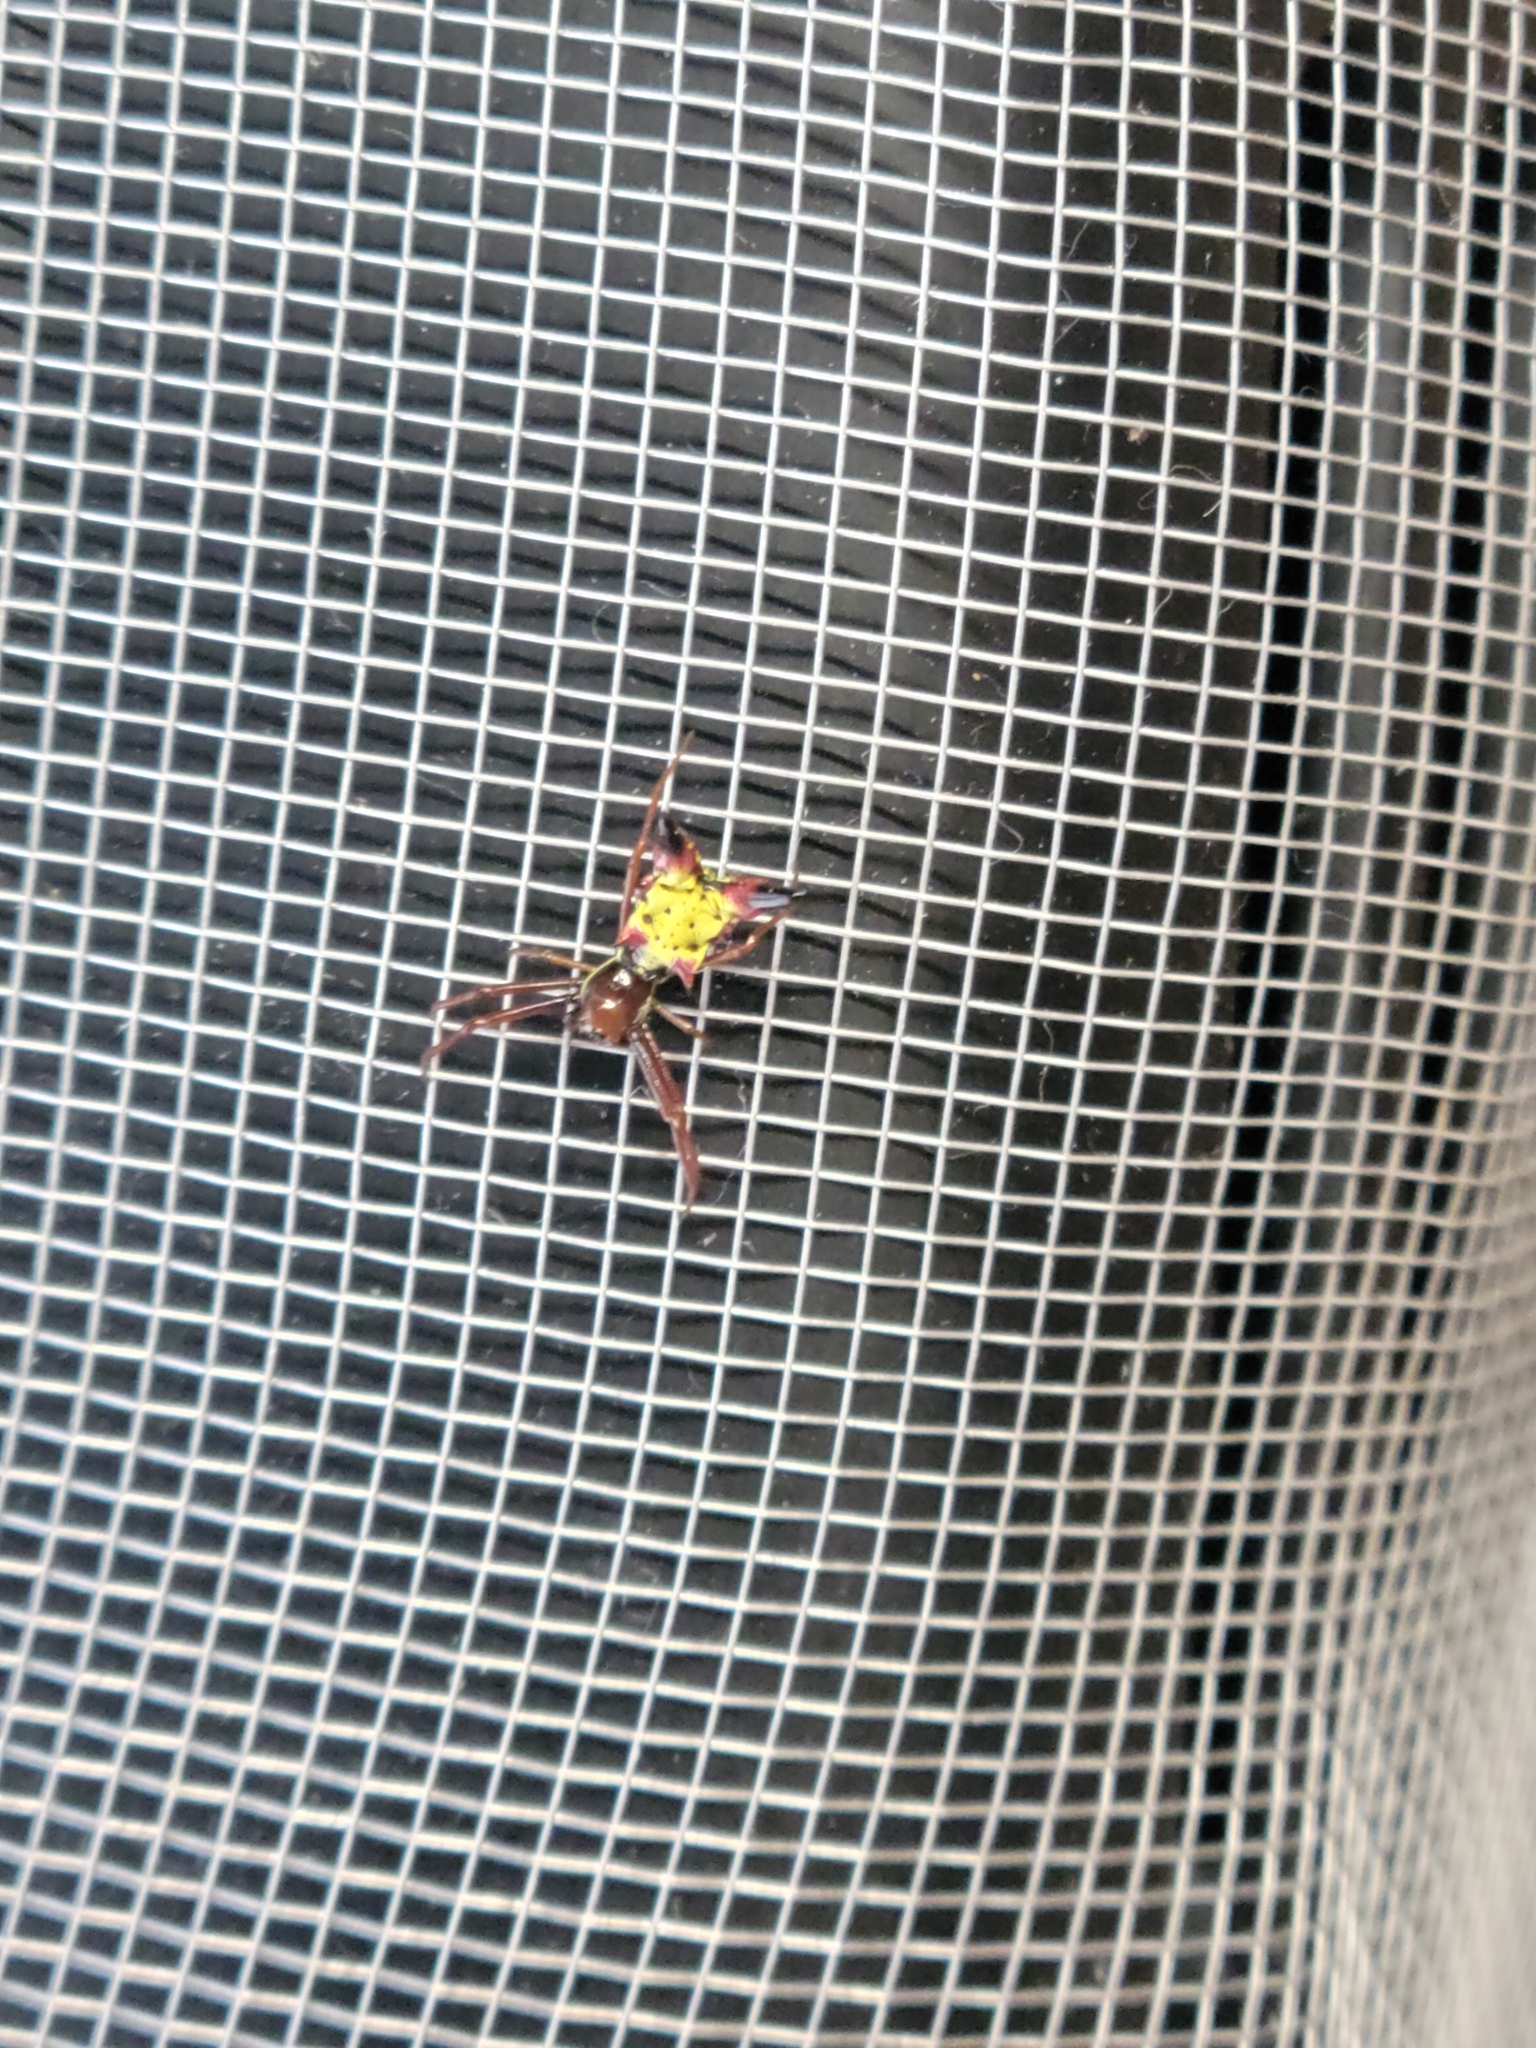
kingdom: Animalia
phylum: Arthropoda
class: Arachnida
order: Araneae
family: Araneidae
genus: Micrathena
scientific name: Micrathena sagittata
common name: Orb weavers
